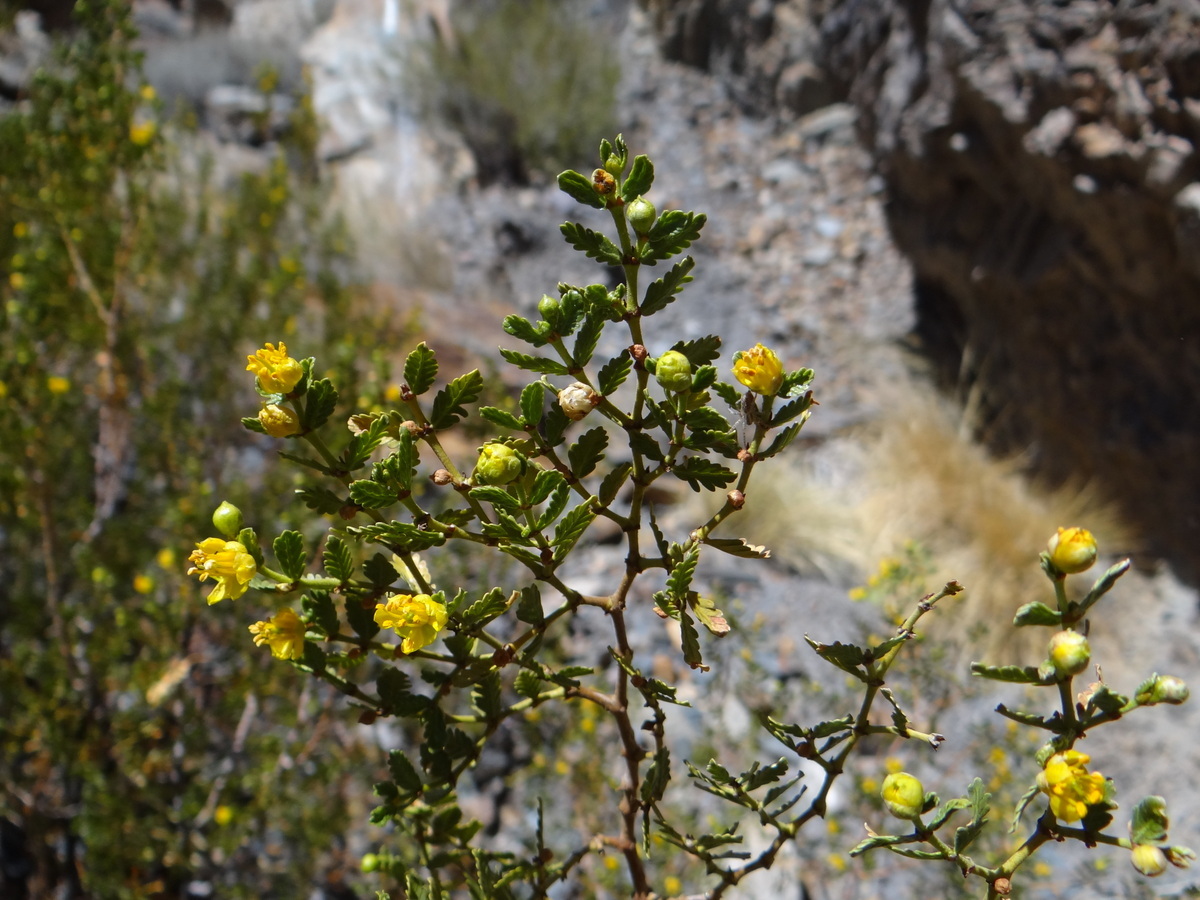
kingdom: Plantae
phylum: Tracheophyta
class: Magnoliopsida
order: Zygophyllales
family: Zygophyllaceae
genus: Larrea
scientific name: Larrea nitida
